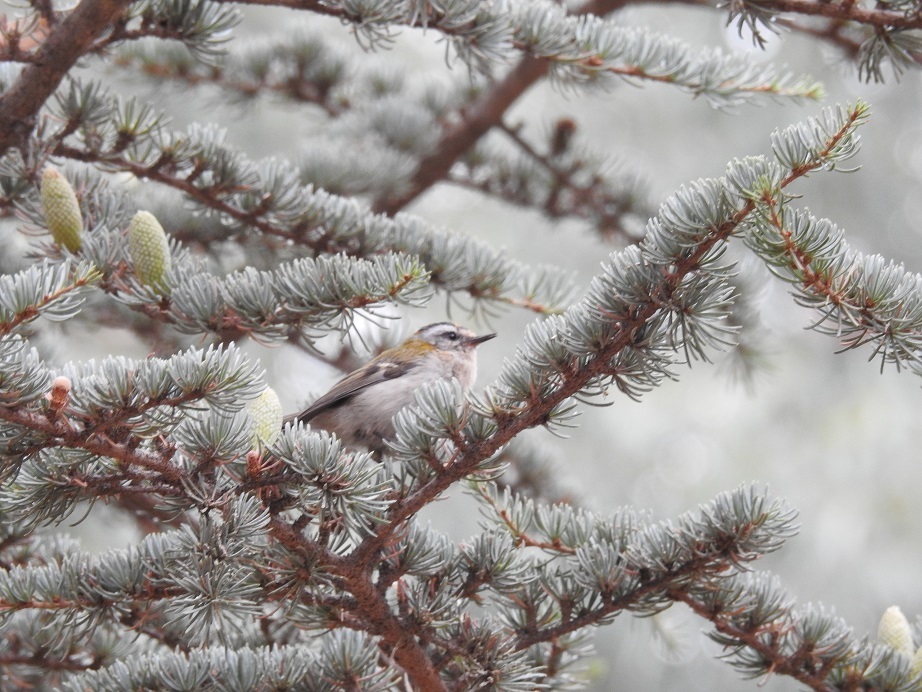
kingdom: Animalia
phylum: Chordata
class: Aves
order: Passeriformes
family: Regulidae
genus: Regulus
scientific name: Regulus ignicapilla
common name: Firecrest
